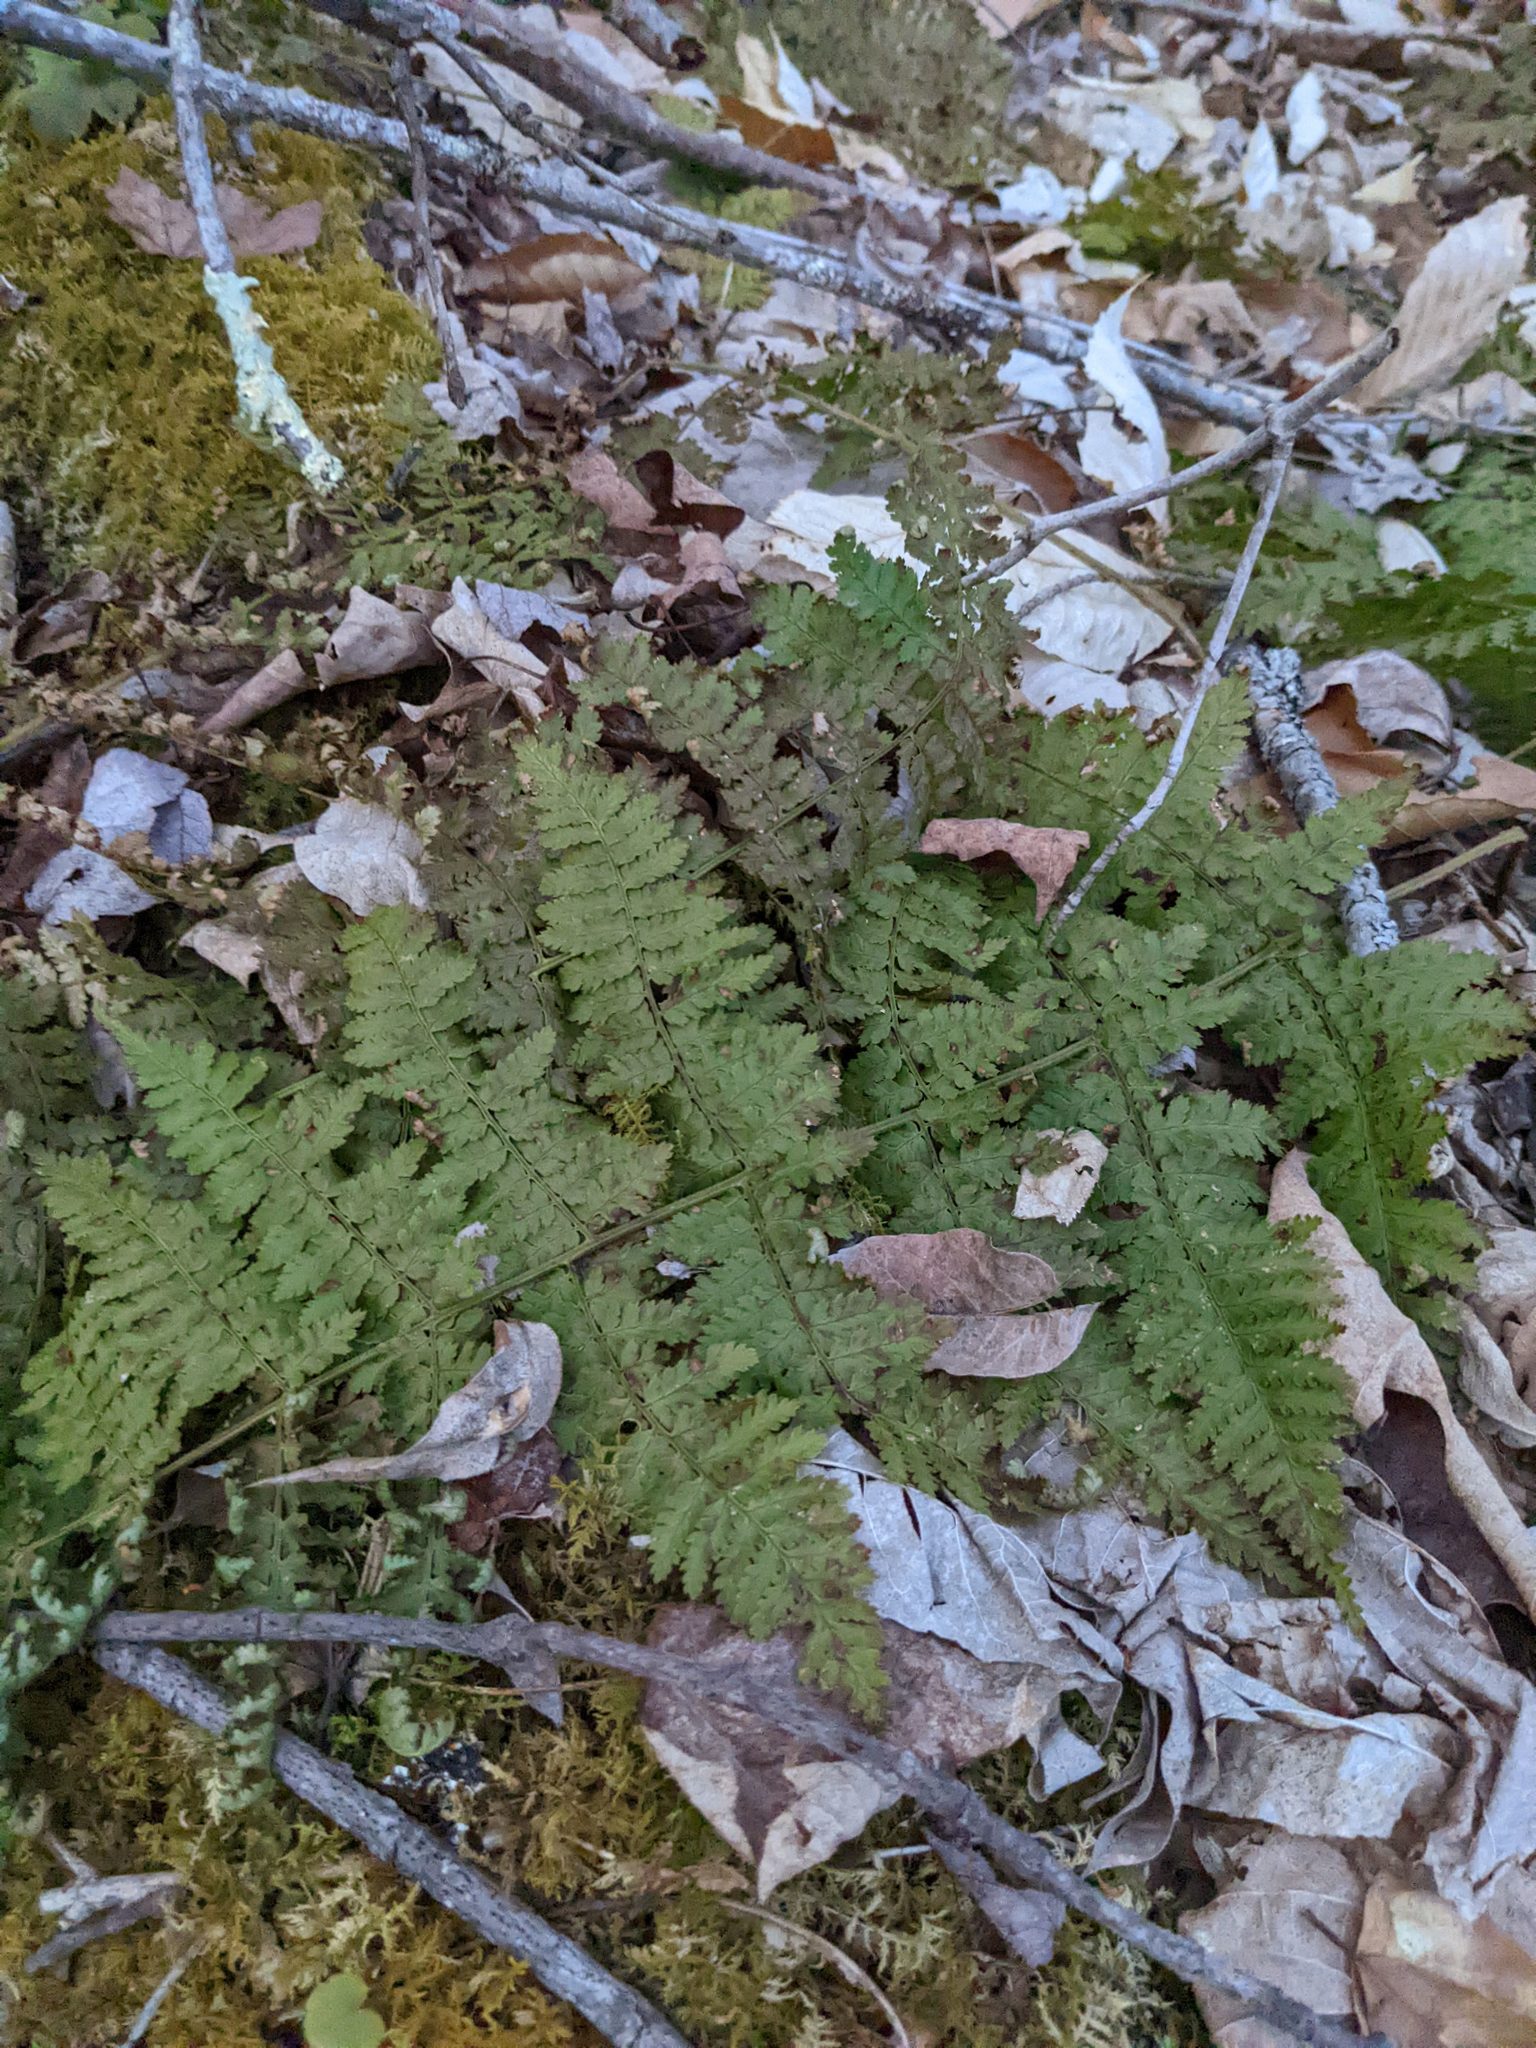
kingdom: Plantae
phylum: Tracheophyta
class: Polypodiopsida
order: Polypodiales
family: Dryopteridaceae
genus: Dryopteris
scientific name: Dryopteris intermedia
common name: Evergreen wood fern
